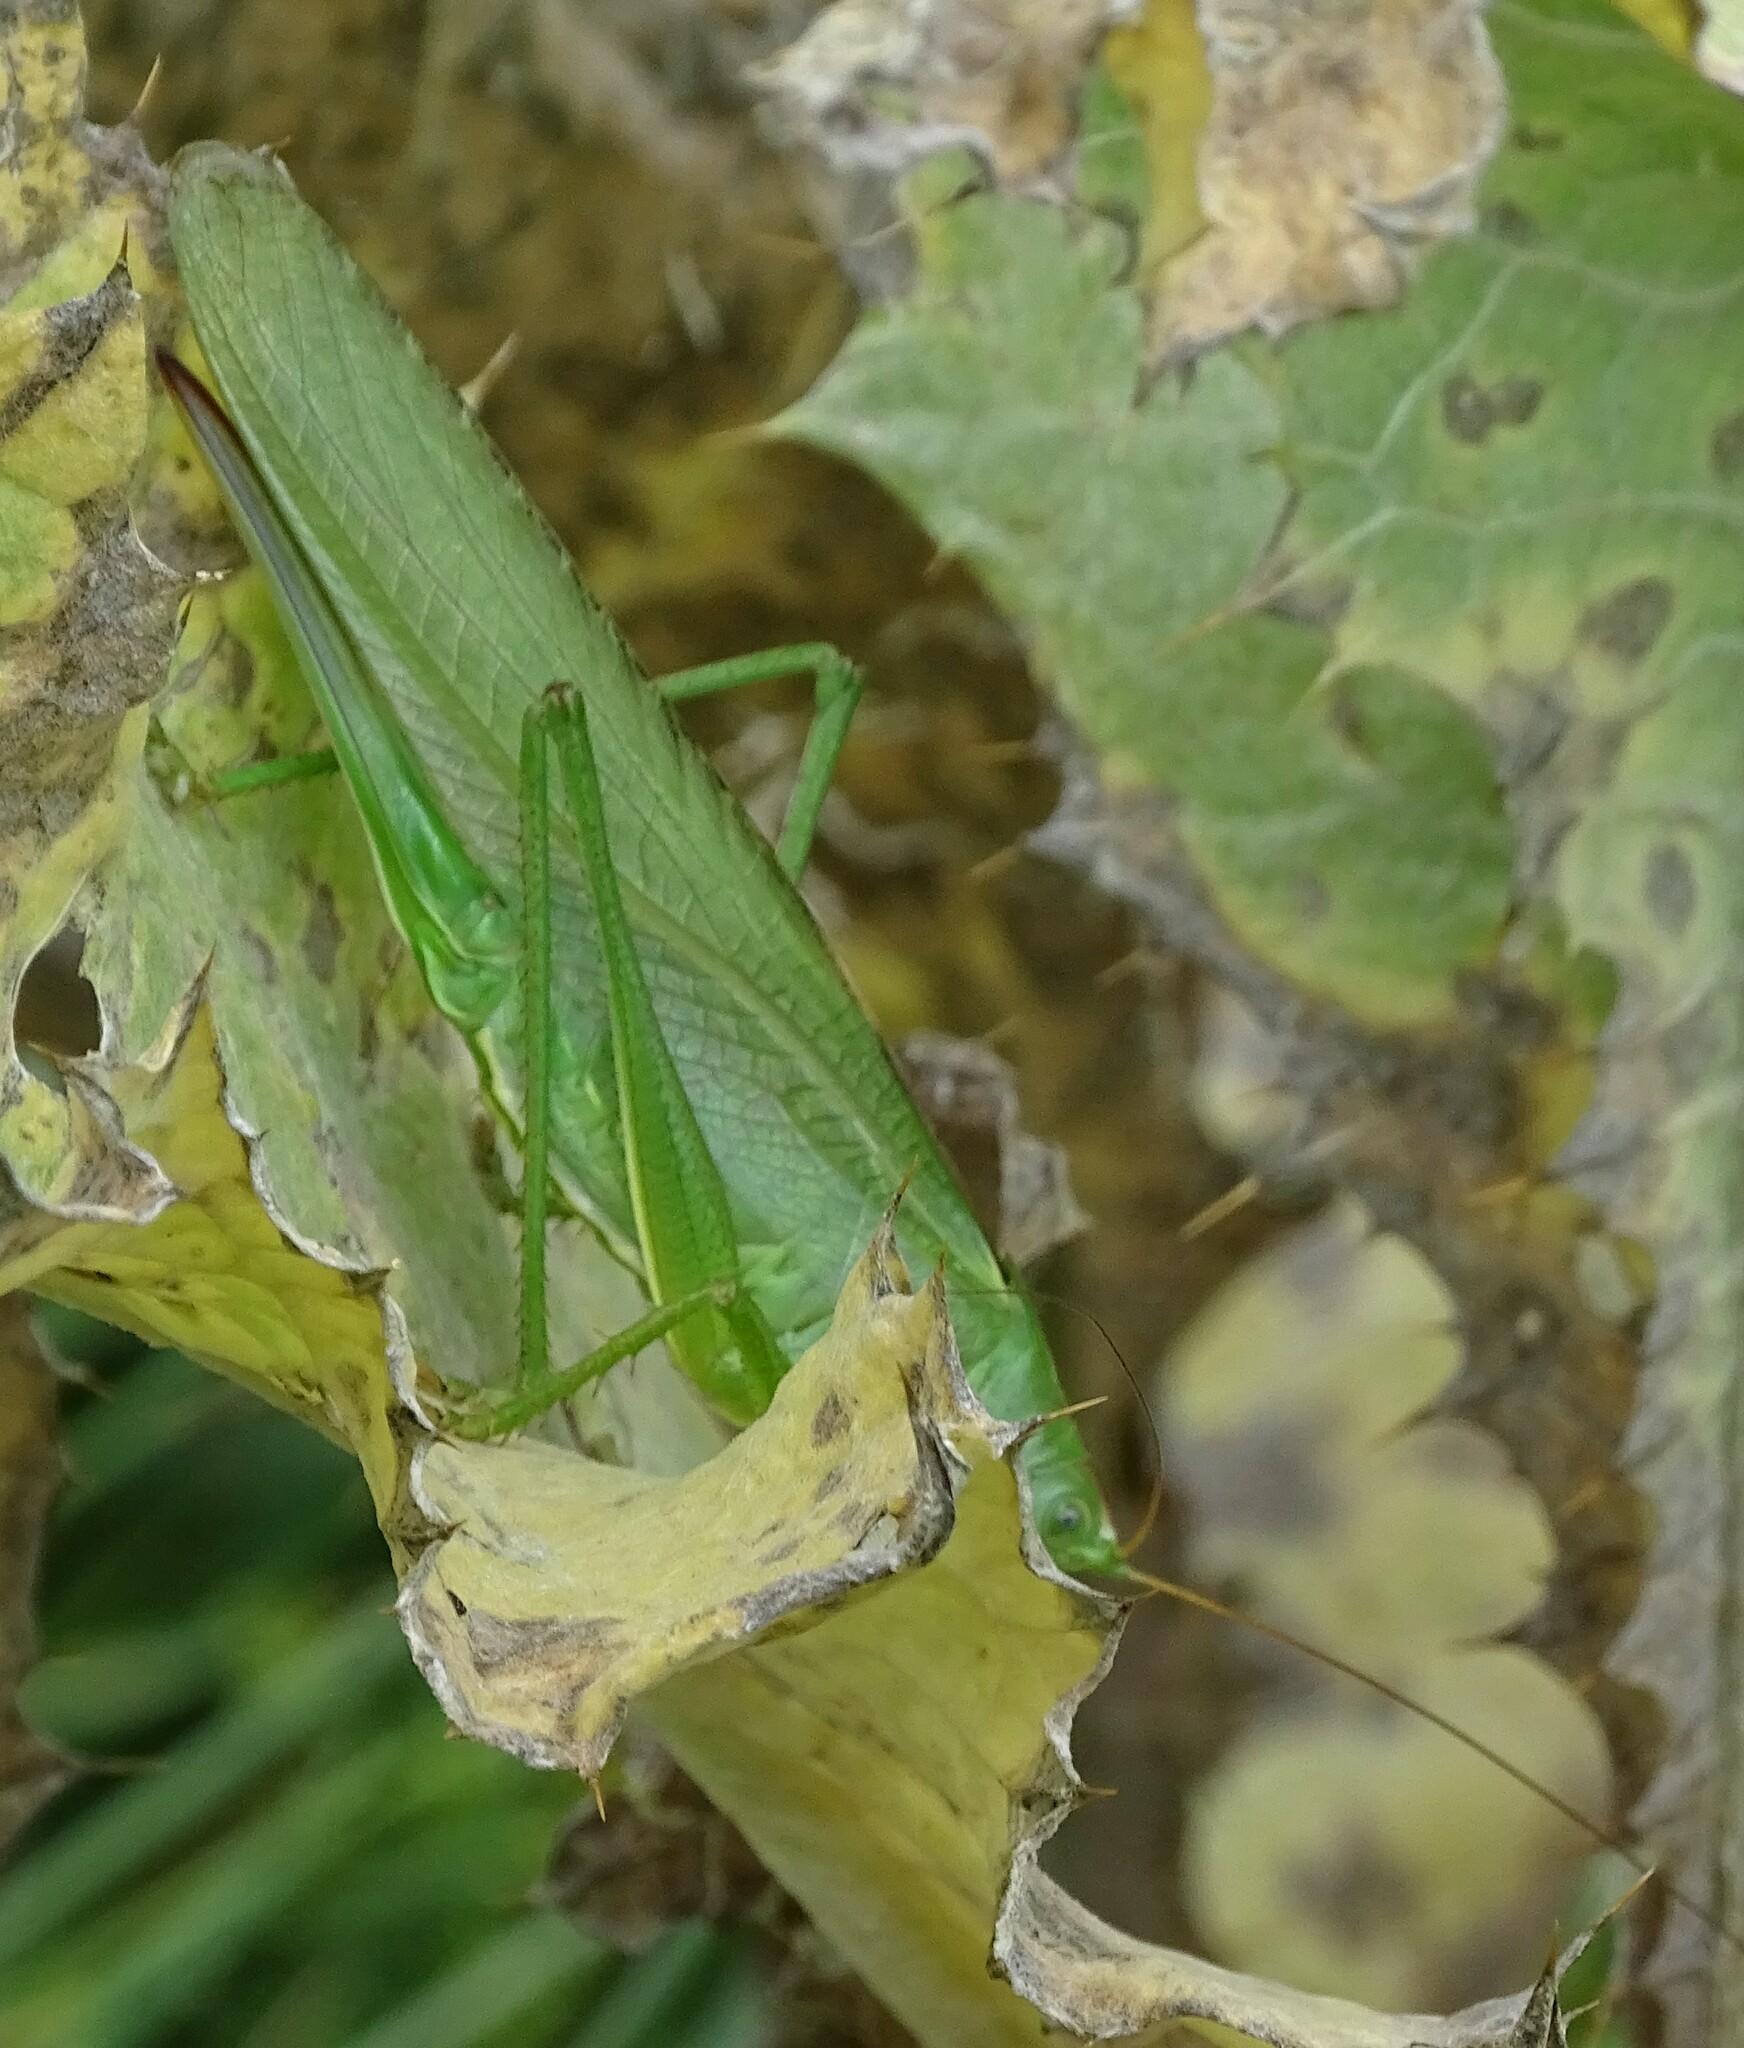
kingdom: Animalia
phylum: Arthropoda
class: Insecta
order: Orthoptera
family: Tettigoniidae
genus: Tettigonia
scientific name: Tettigonia viridissima
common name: Great green bush-cricket
